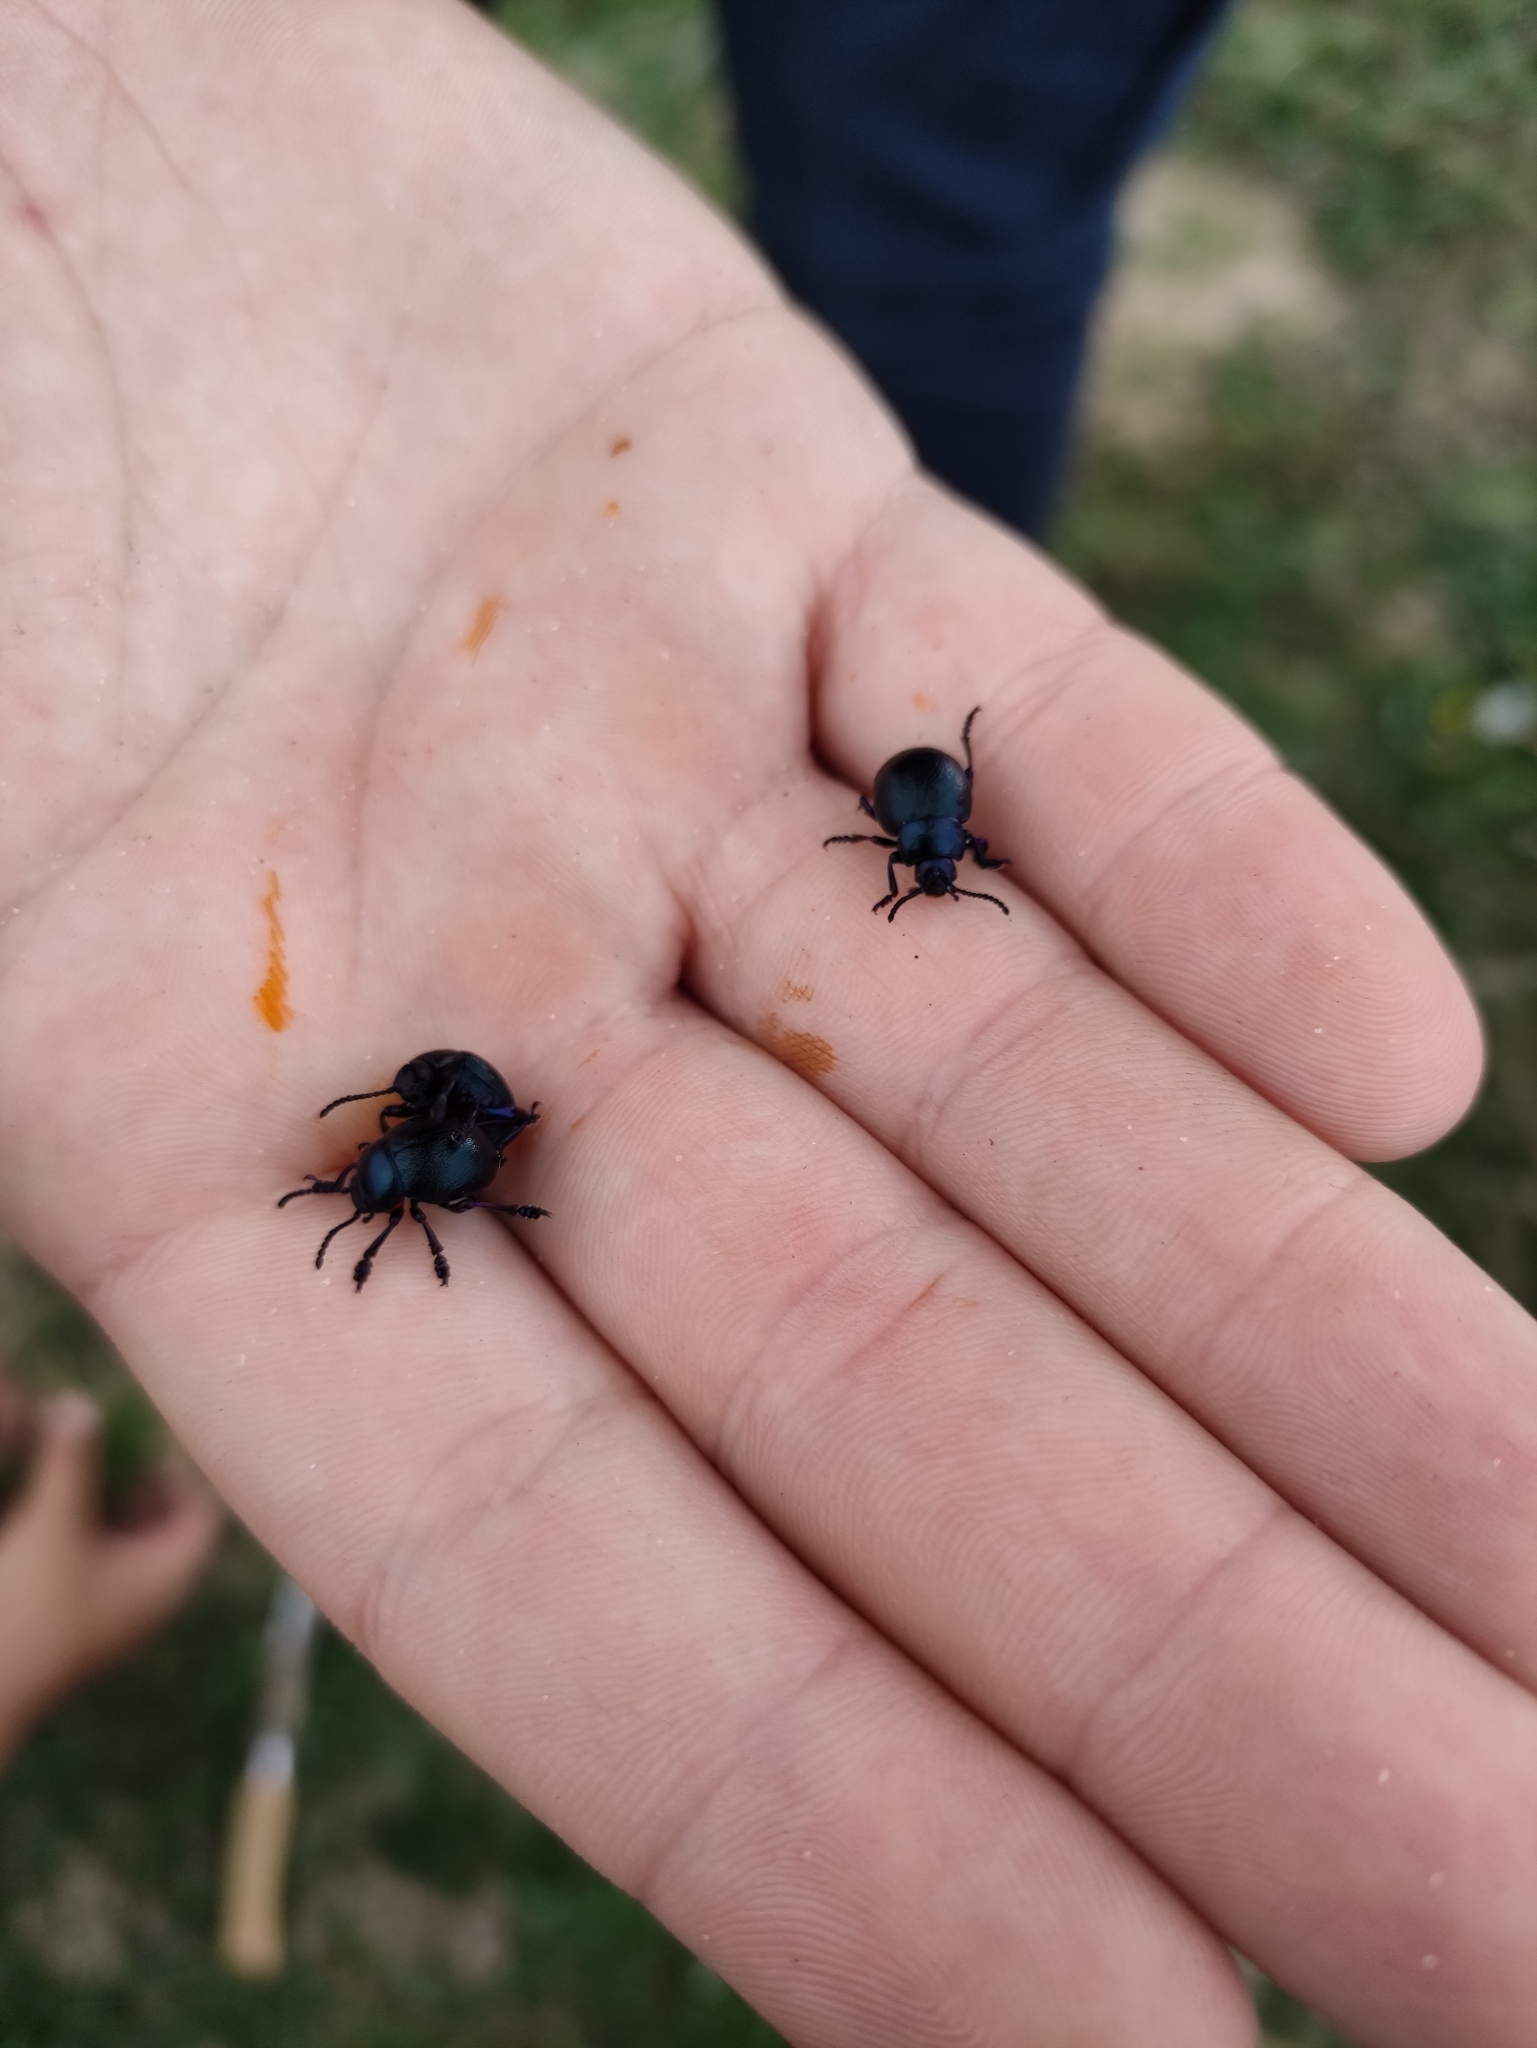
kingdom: Animalia
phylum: Arthropoda
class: Insecta
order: Coleoptera
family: Chrysomelidae
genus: Timarcha
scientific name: Timarcha goettingensis
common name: Small bloody-nosed beetle
